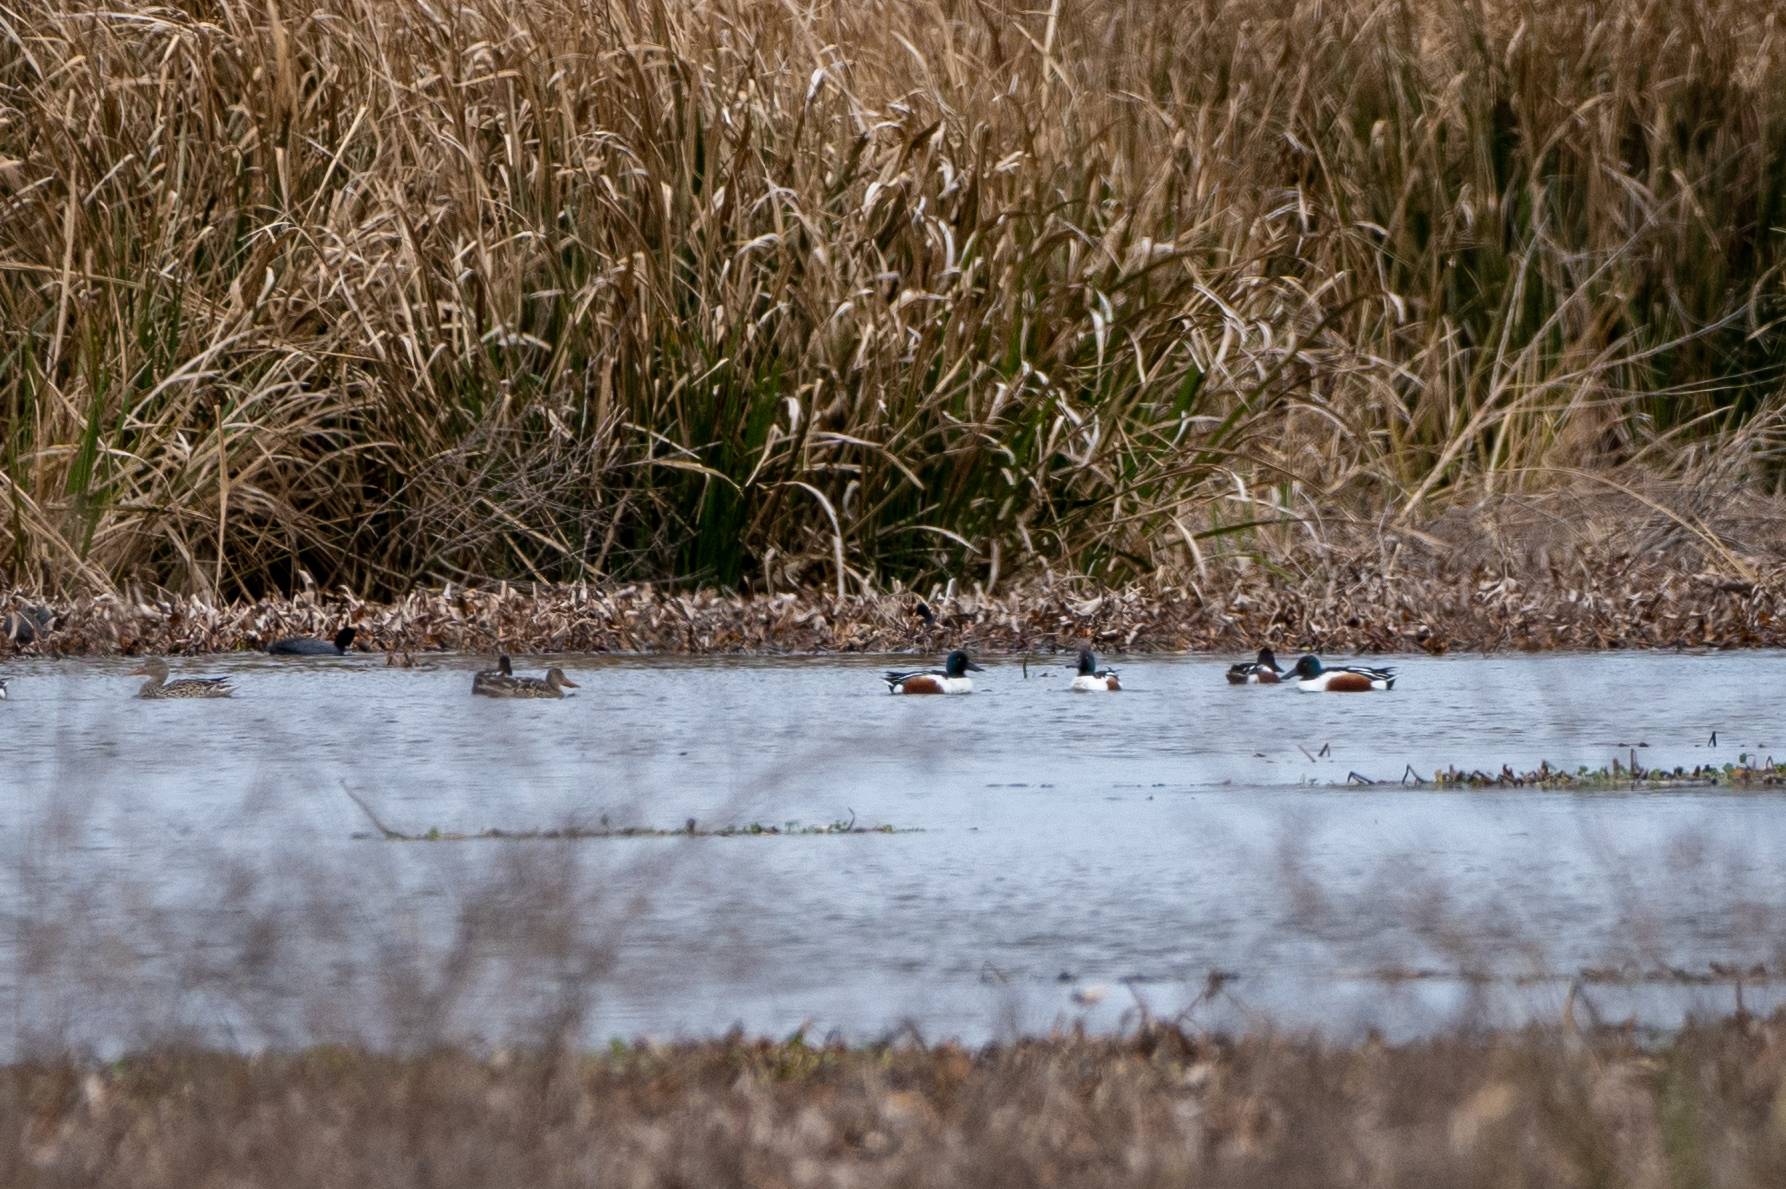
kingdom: Animalia
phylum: Chordata
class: Aves
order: Anseriformes
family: Anatidae
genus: Spatula
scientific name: Spatula clypeata
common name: Northern shoveler
